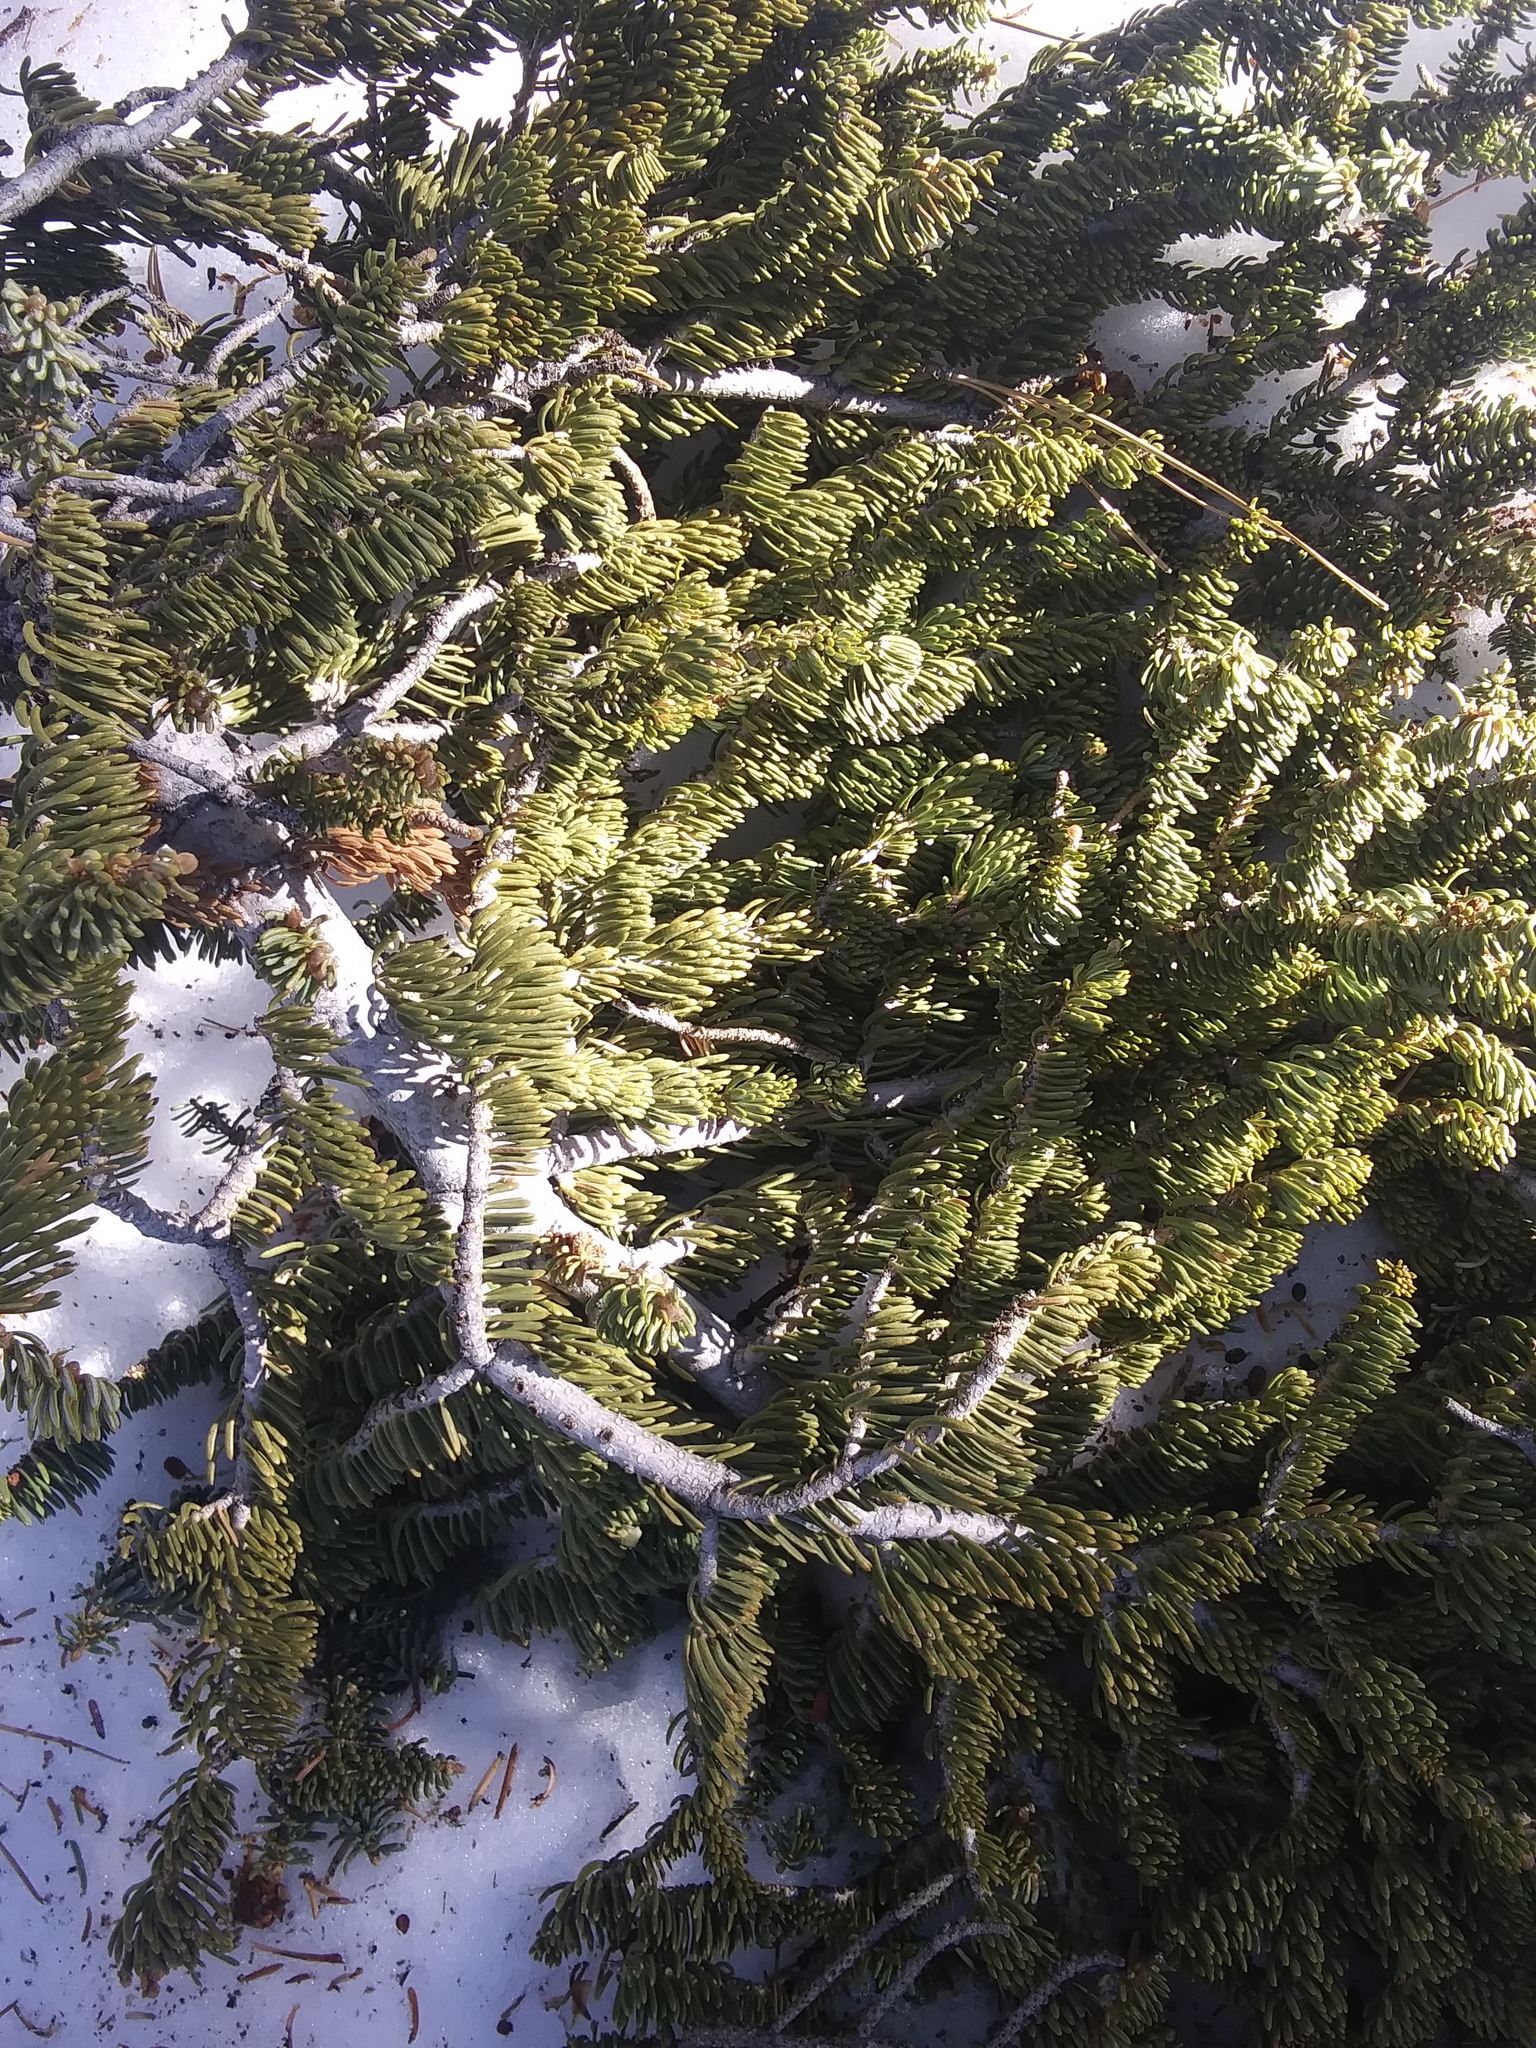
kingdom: Plantae
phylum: Tracheophyta
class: Pinopsida
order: Pinales
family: Pinaceae
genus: Abies
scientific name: Abies concolor
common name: Colorado fir
